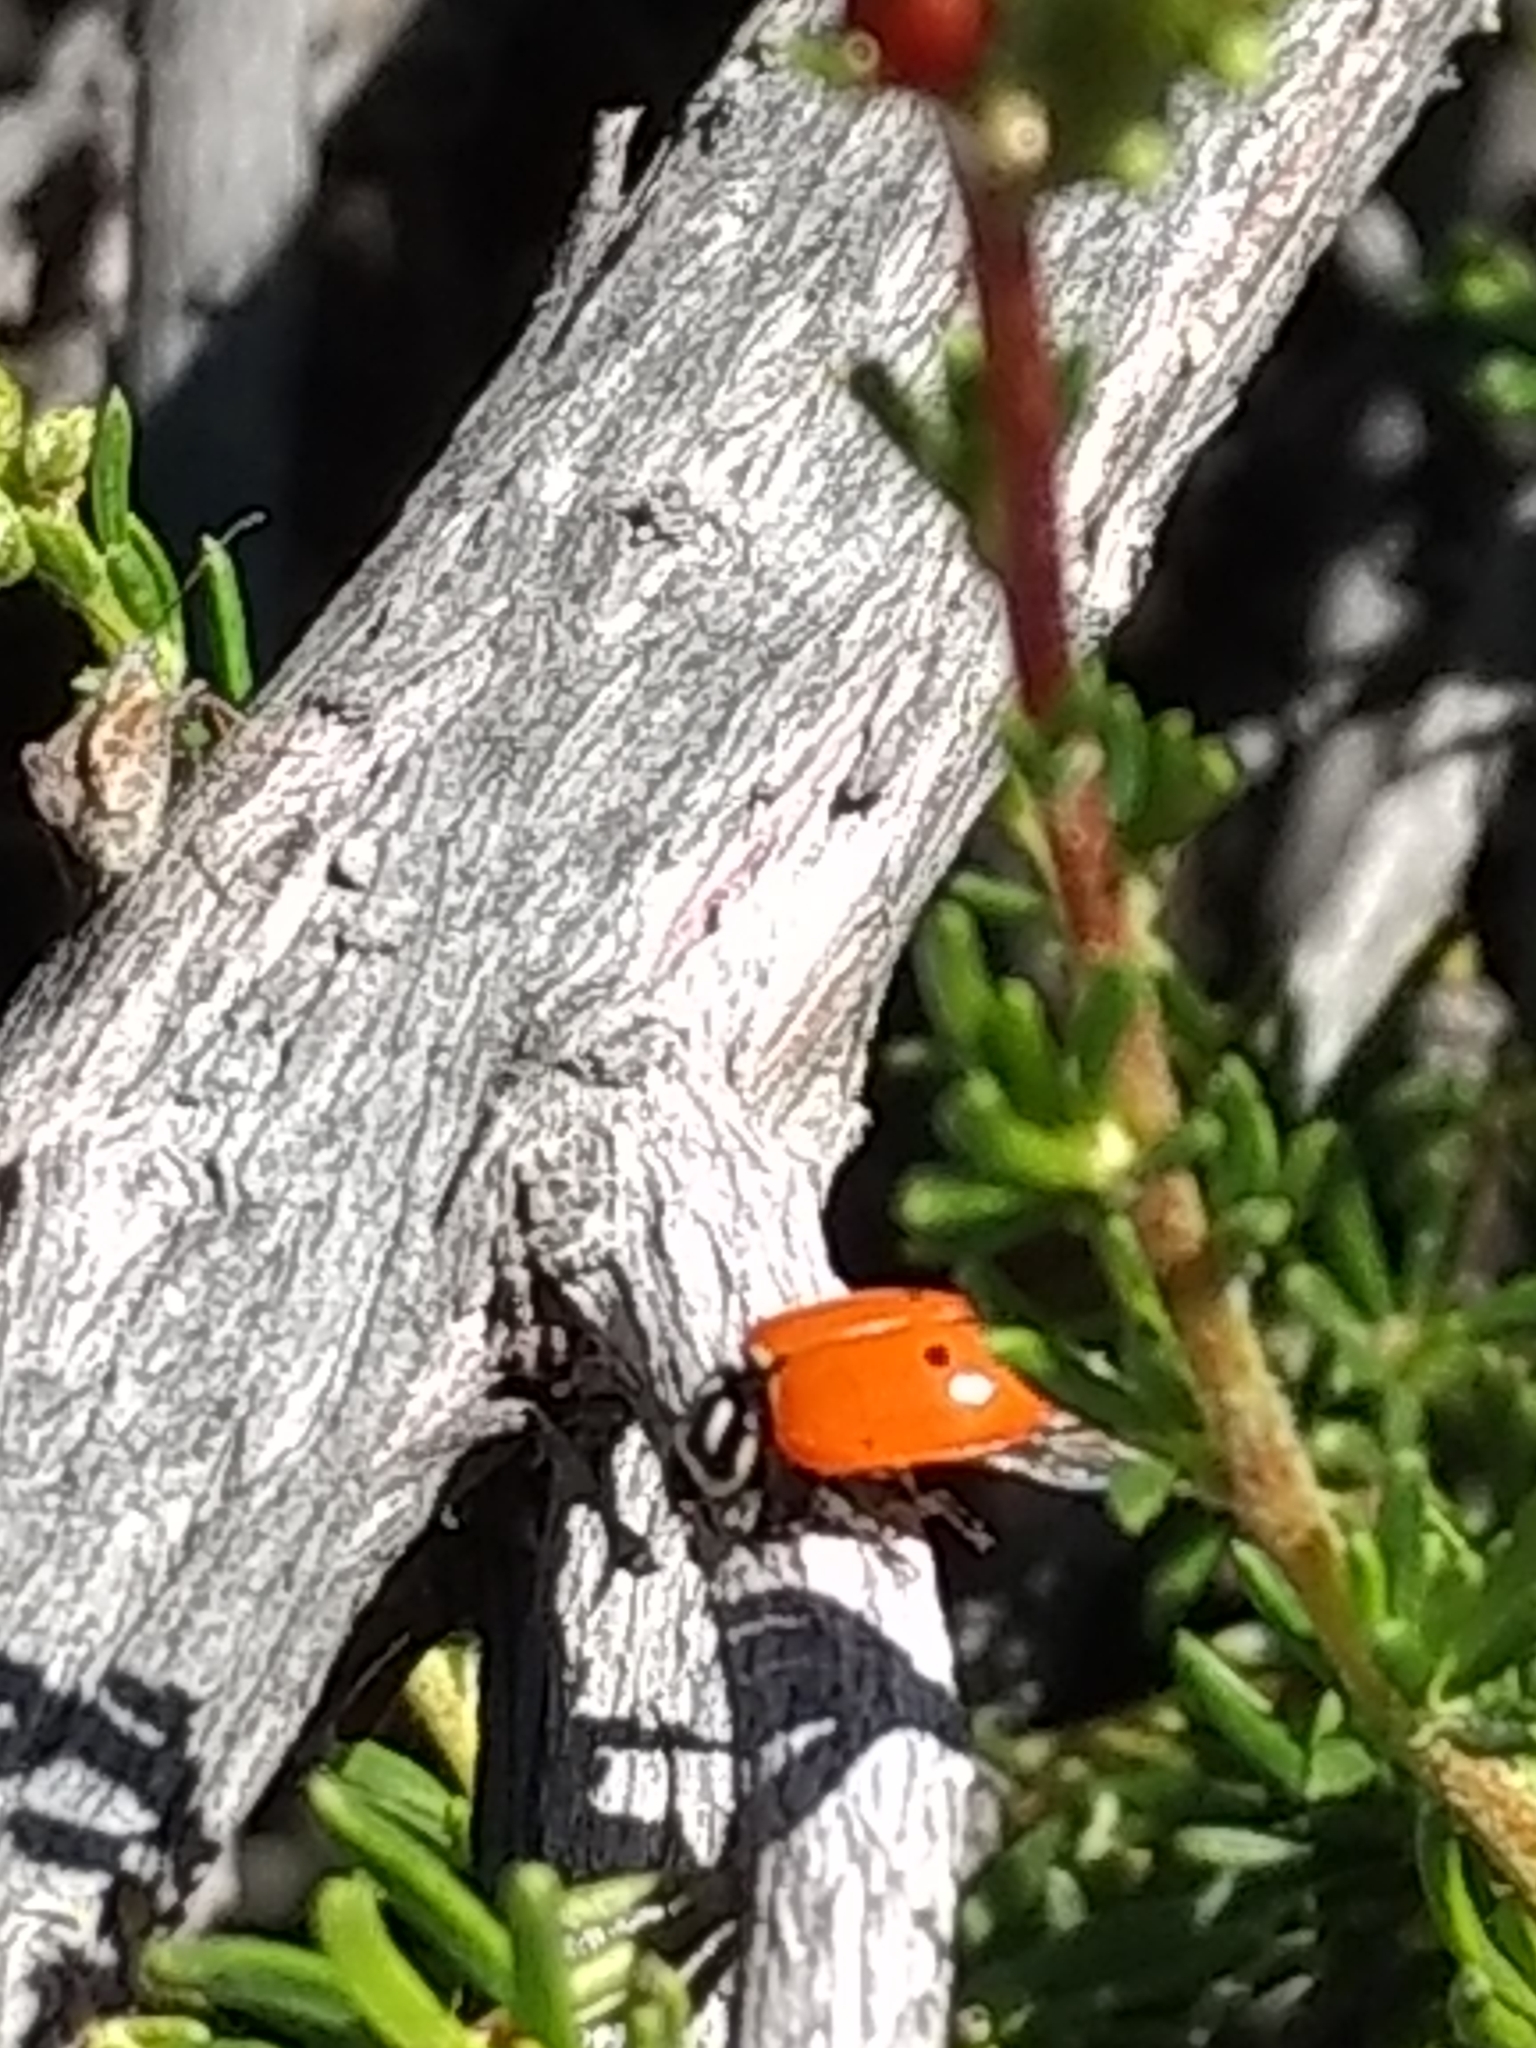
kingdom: Animalia
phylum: Arthropoda
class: Insecta
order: Coleoptera
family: Coccinellidae
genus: Hippodamia
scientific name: Hippodamia convergens
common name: Convergent lady beetle
